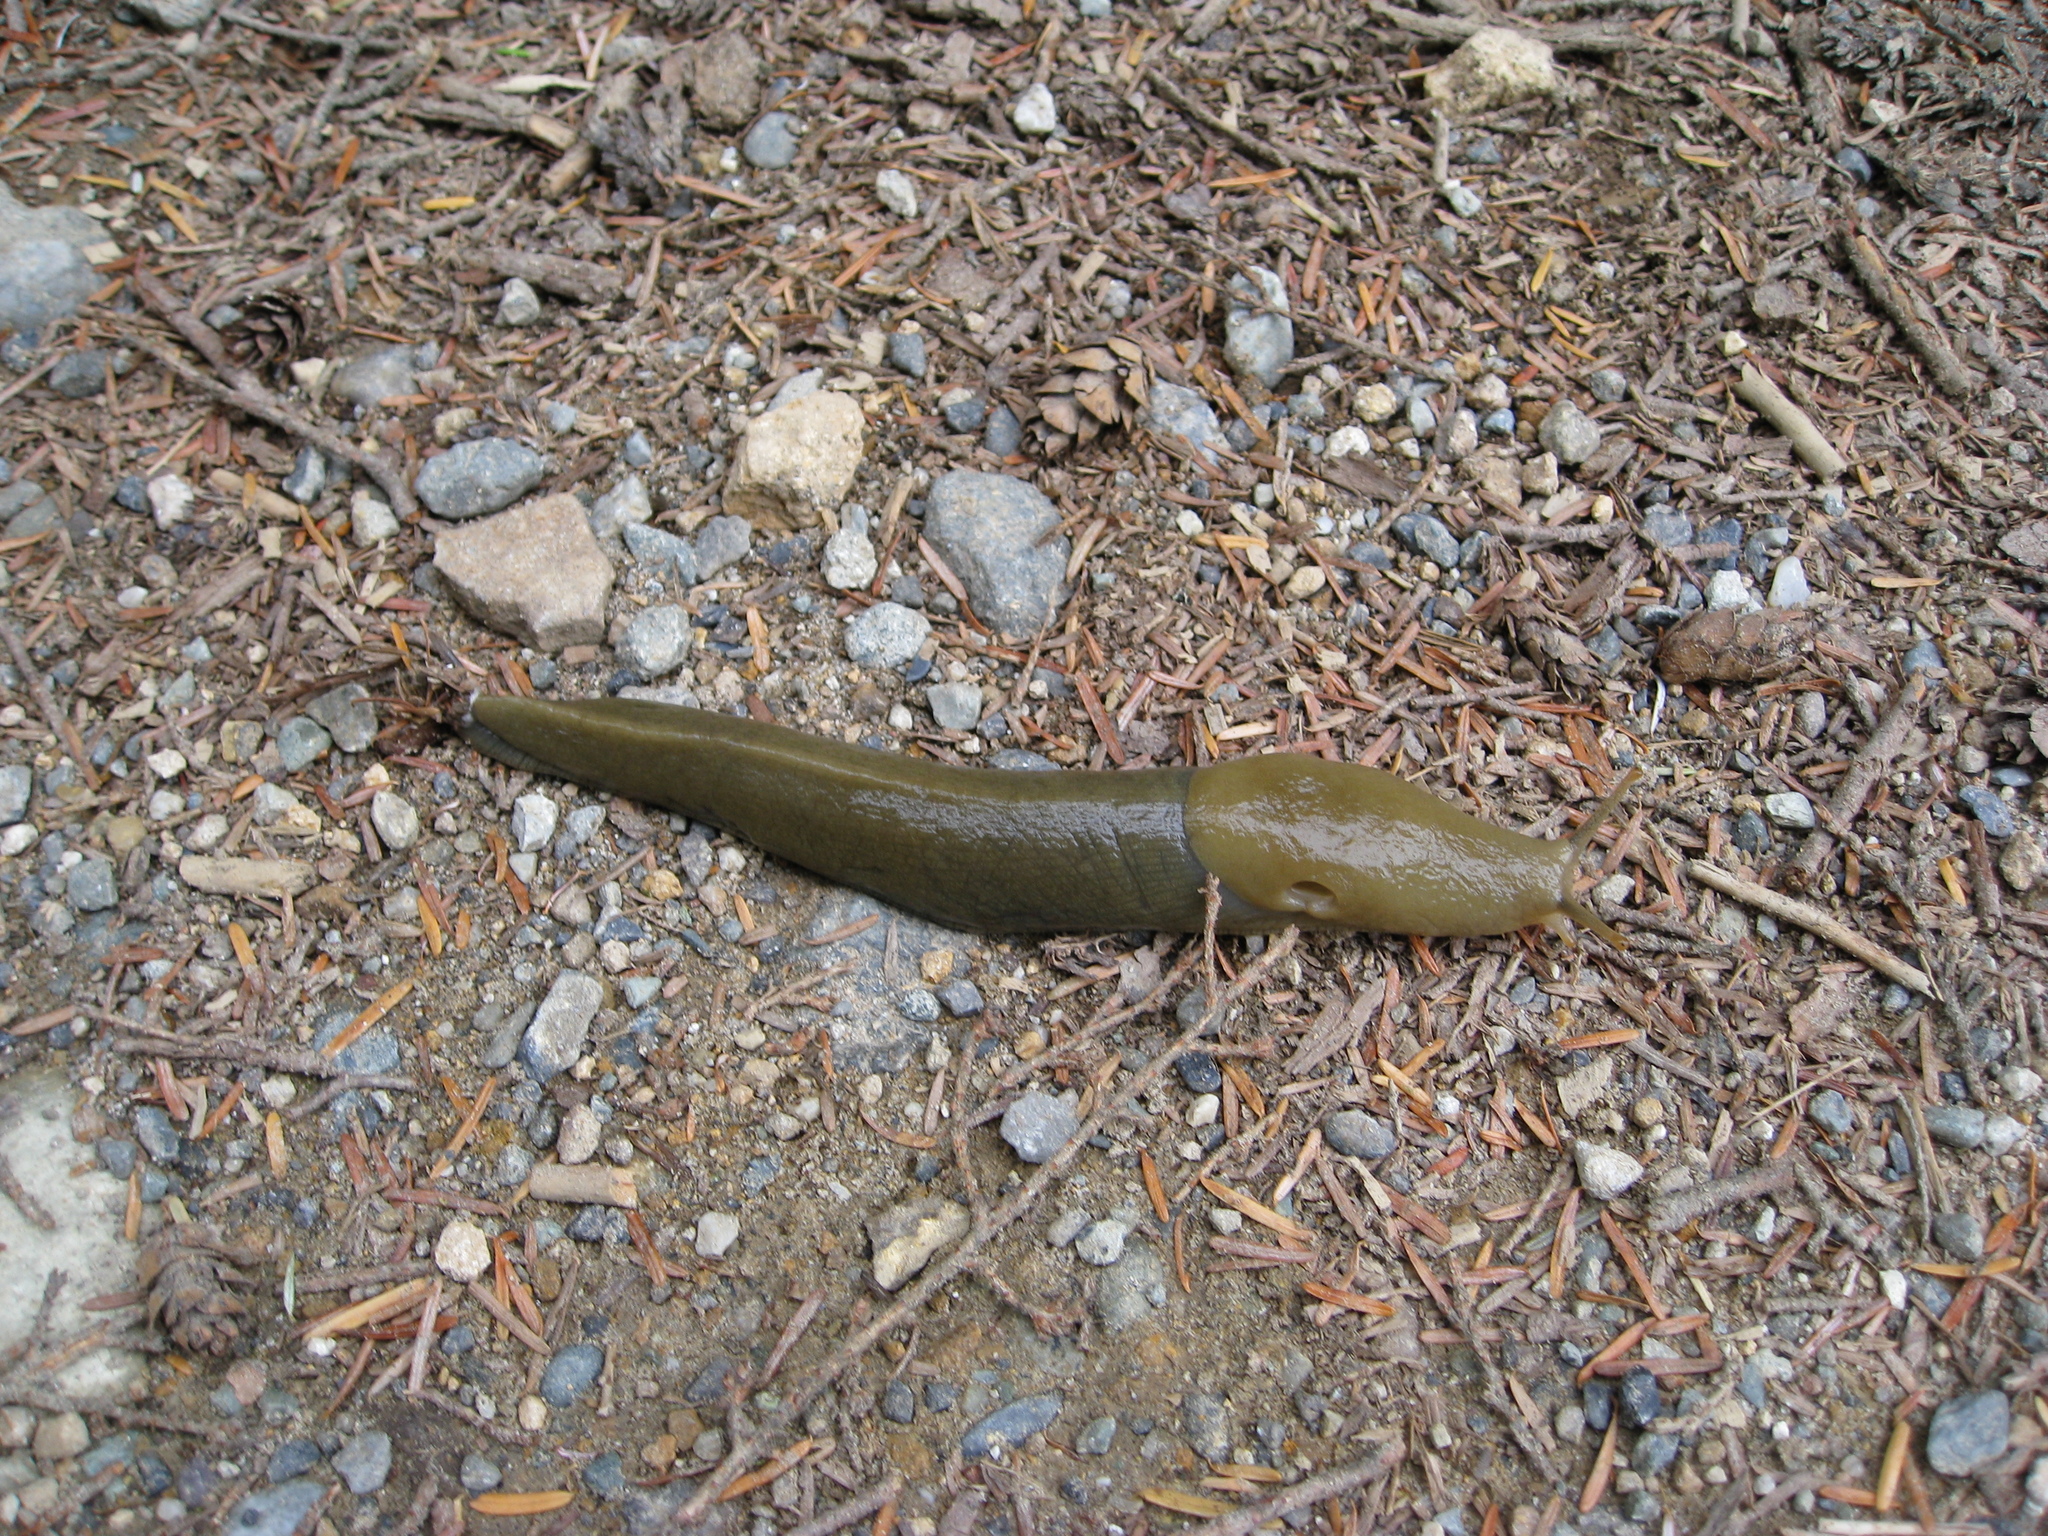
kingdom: Animalia
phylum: Mollusca
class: Gastropoda
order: Stylommatophora
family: Ariolimacidae
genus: Ariolimax
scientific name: Ariolimax columbianus
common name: Pacific banana slug
